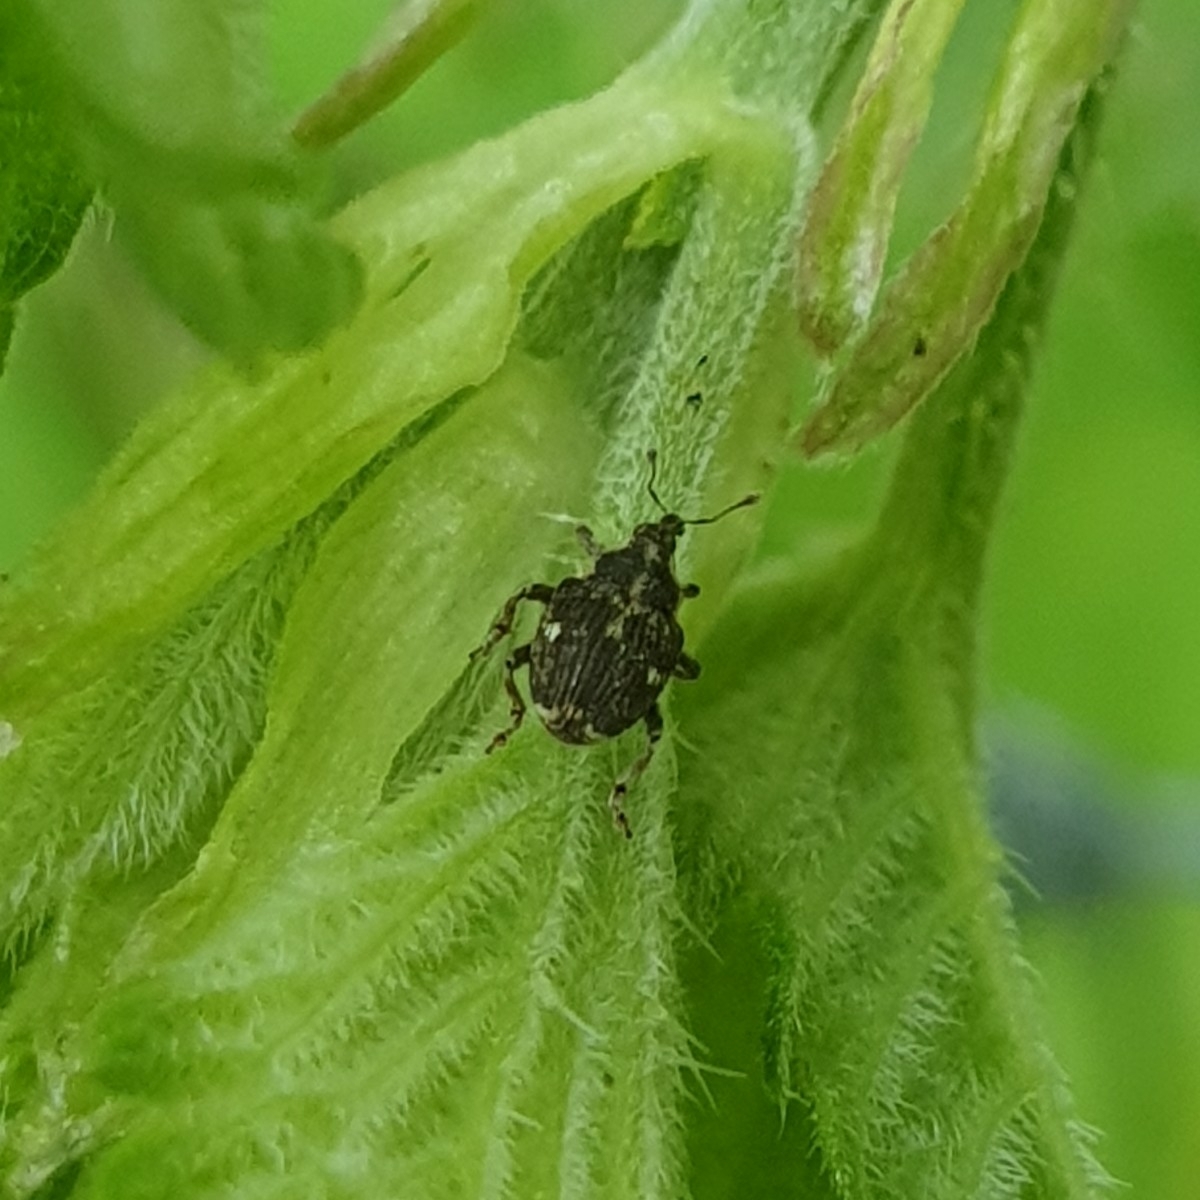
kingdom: Animalia
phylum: Arthropoda
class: Insecta
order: Coleoptera
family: Curculionidae
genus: Nedyus
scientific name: Nedyus quadrimaculatus
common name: Small nettle weevil
